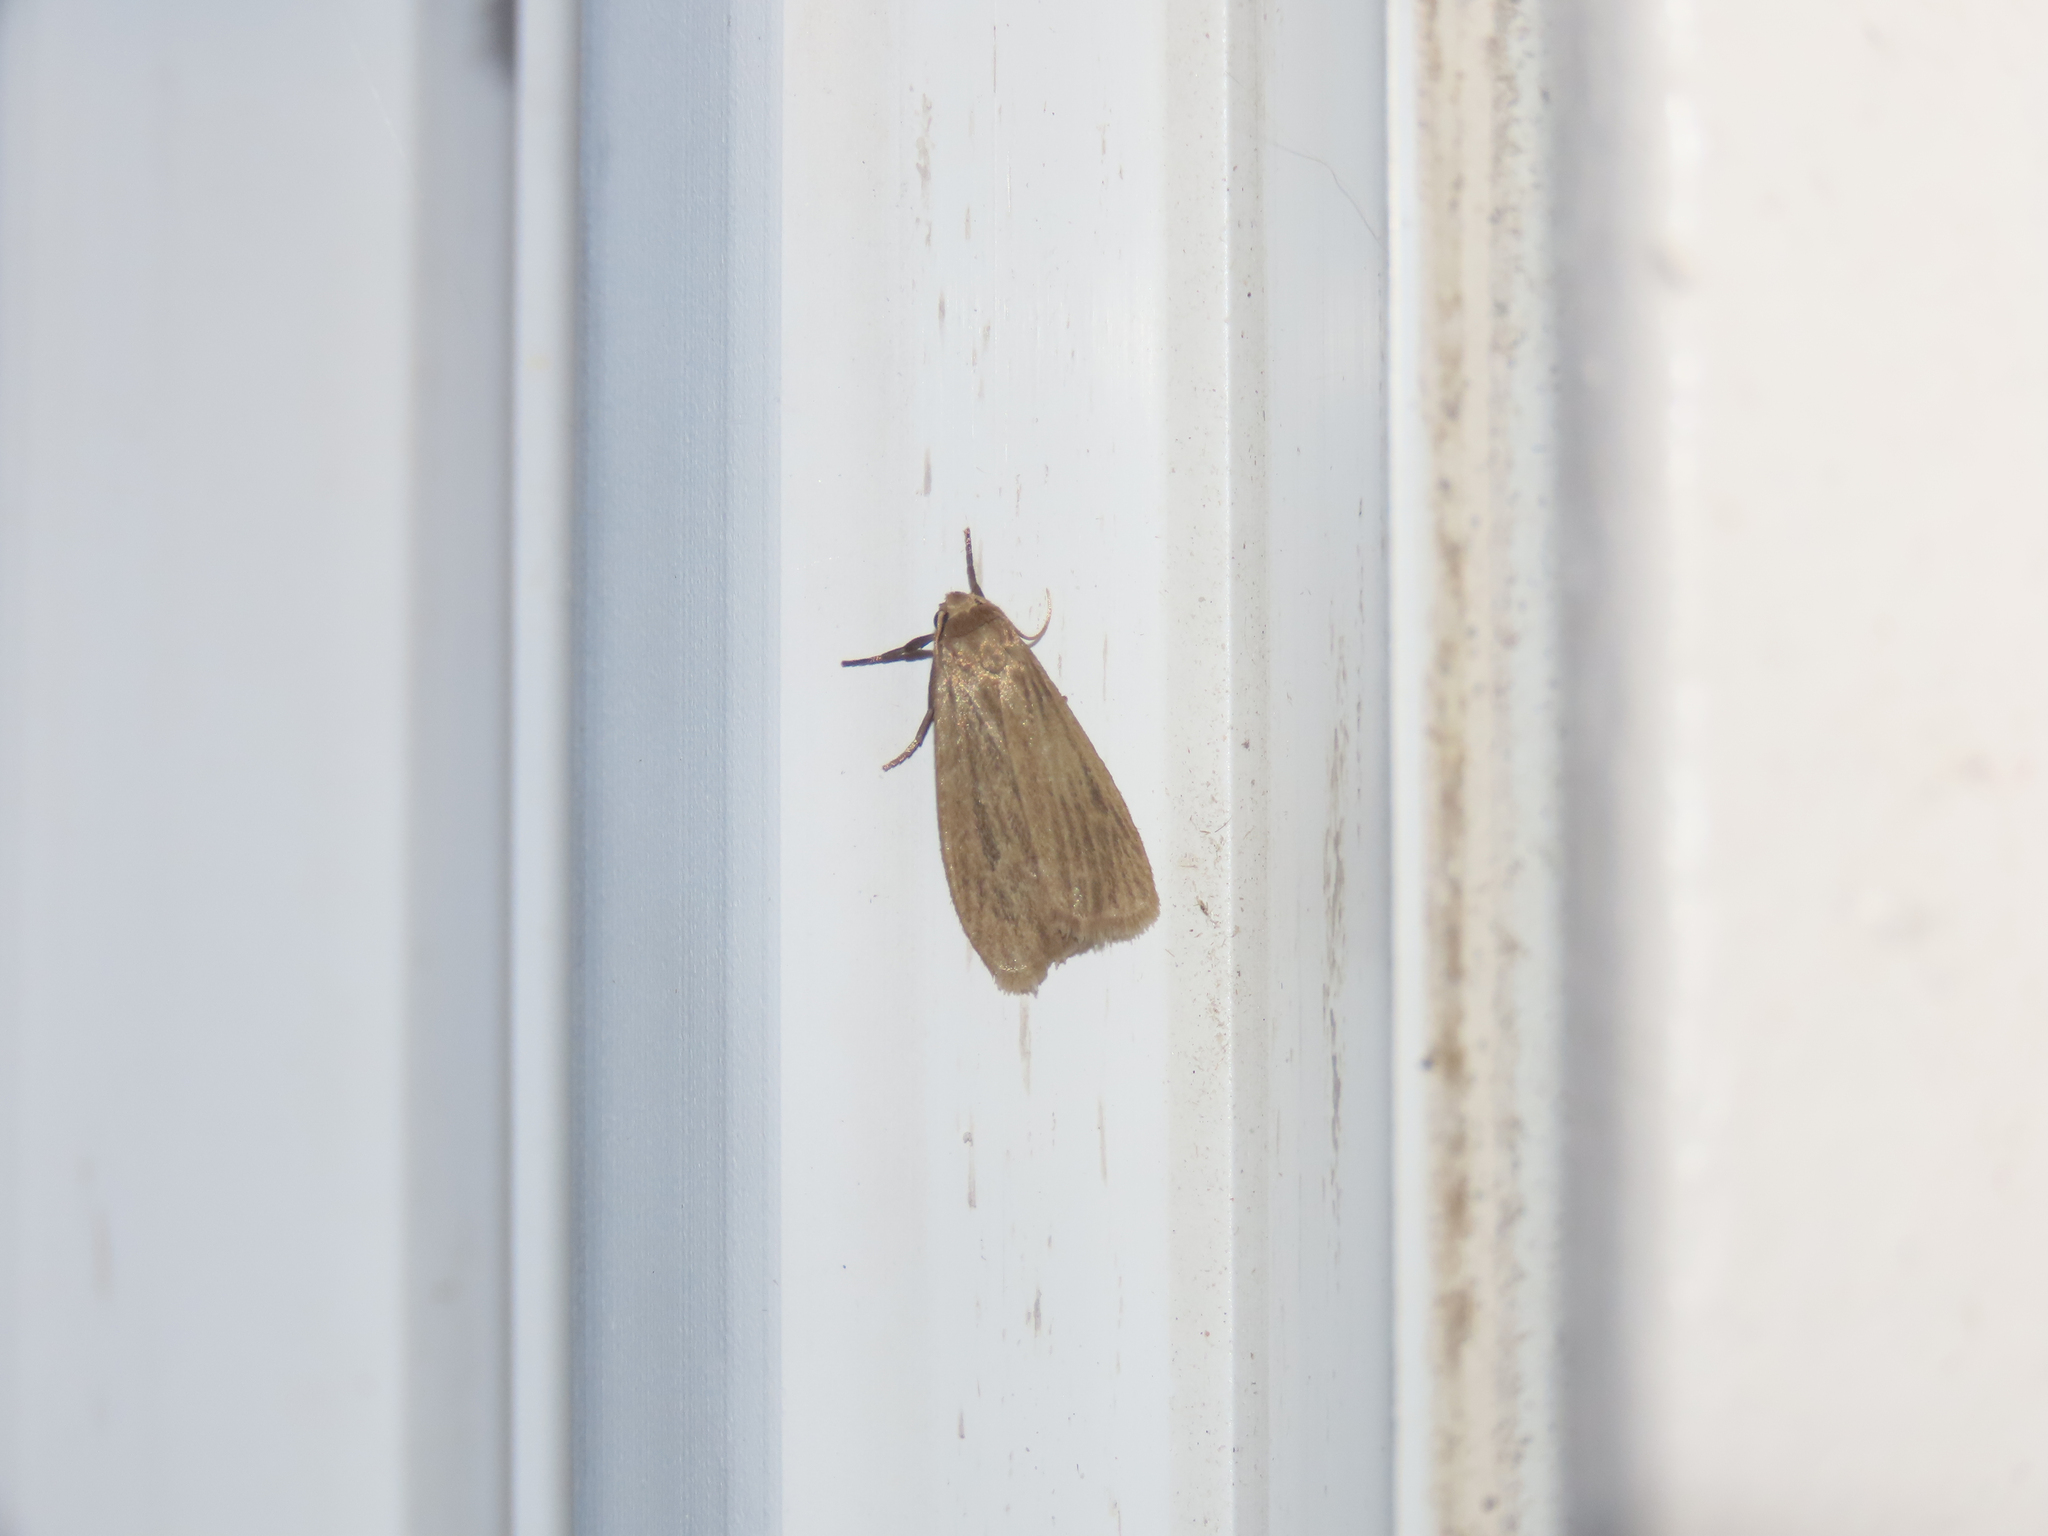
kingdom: Animalia
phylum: Arthropoda
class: Insecta
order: Lepidoptera
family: Erebidae
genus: Crambidia
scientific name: Crambidia pallida
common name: Pale lichen moth
